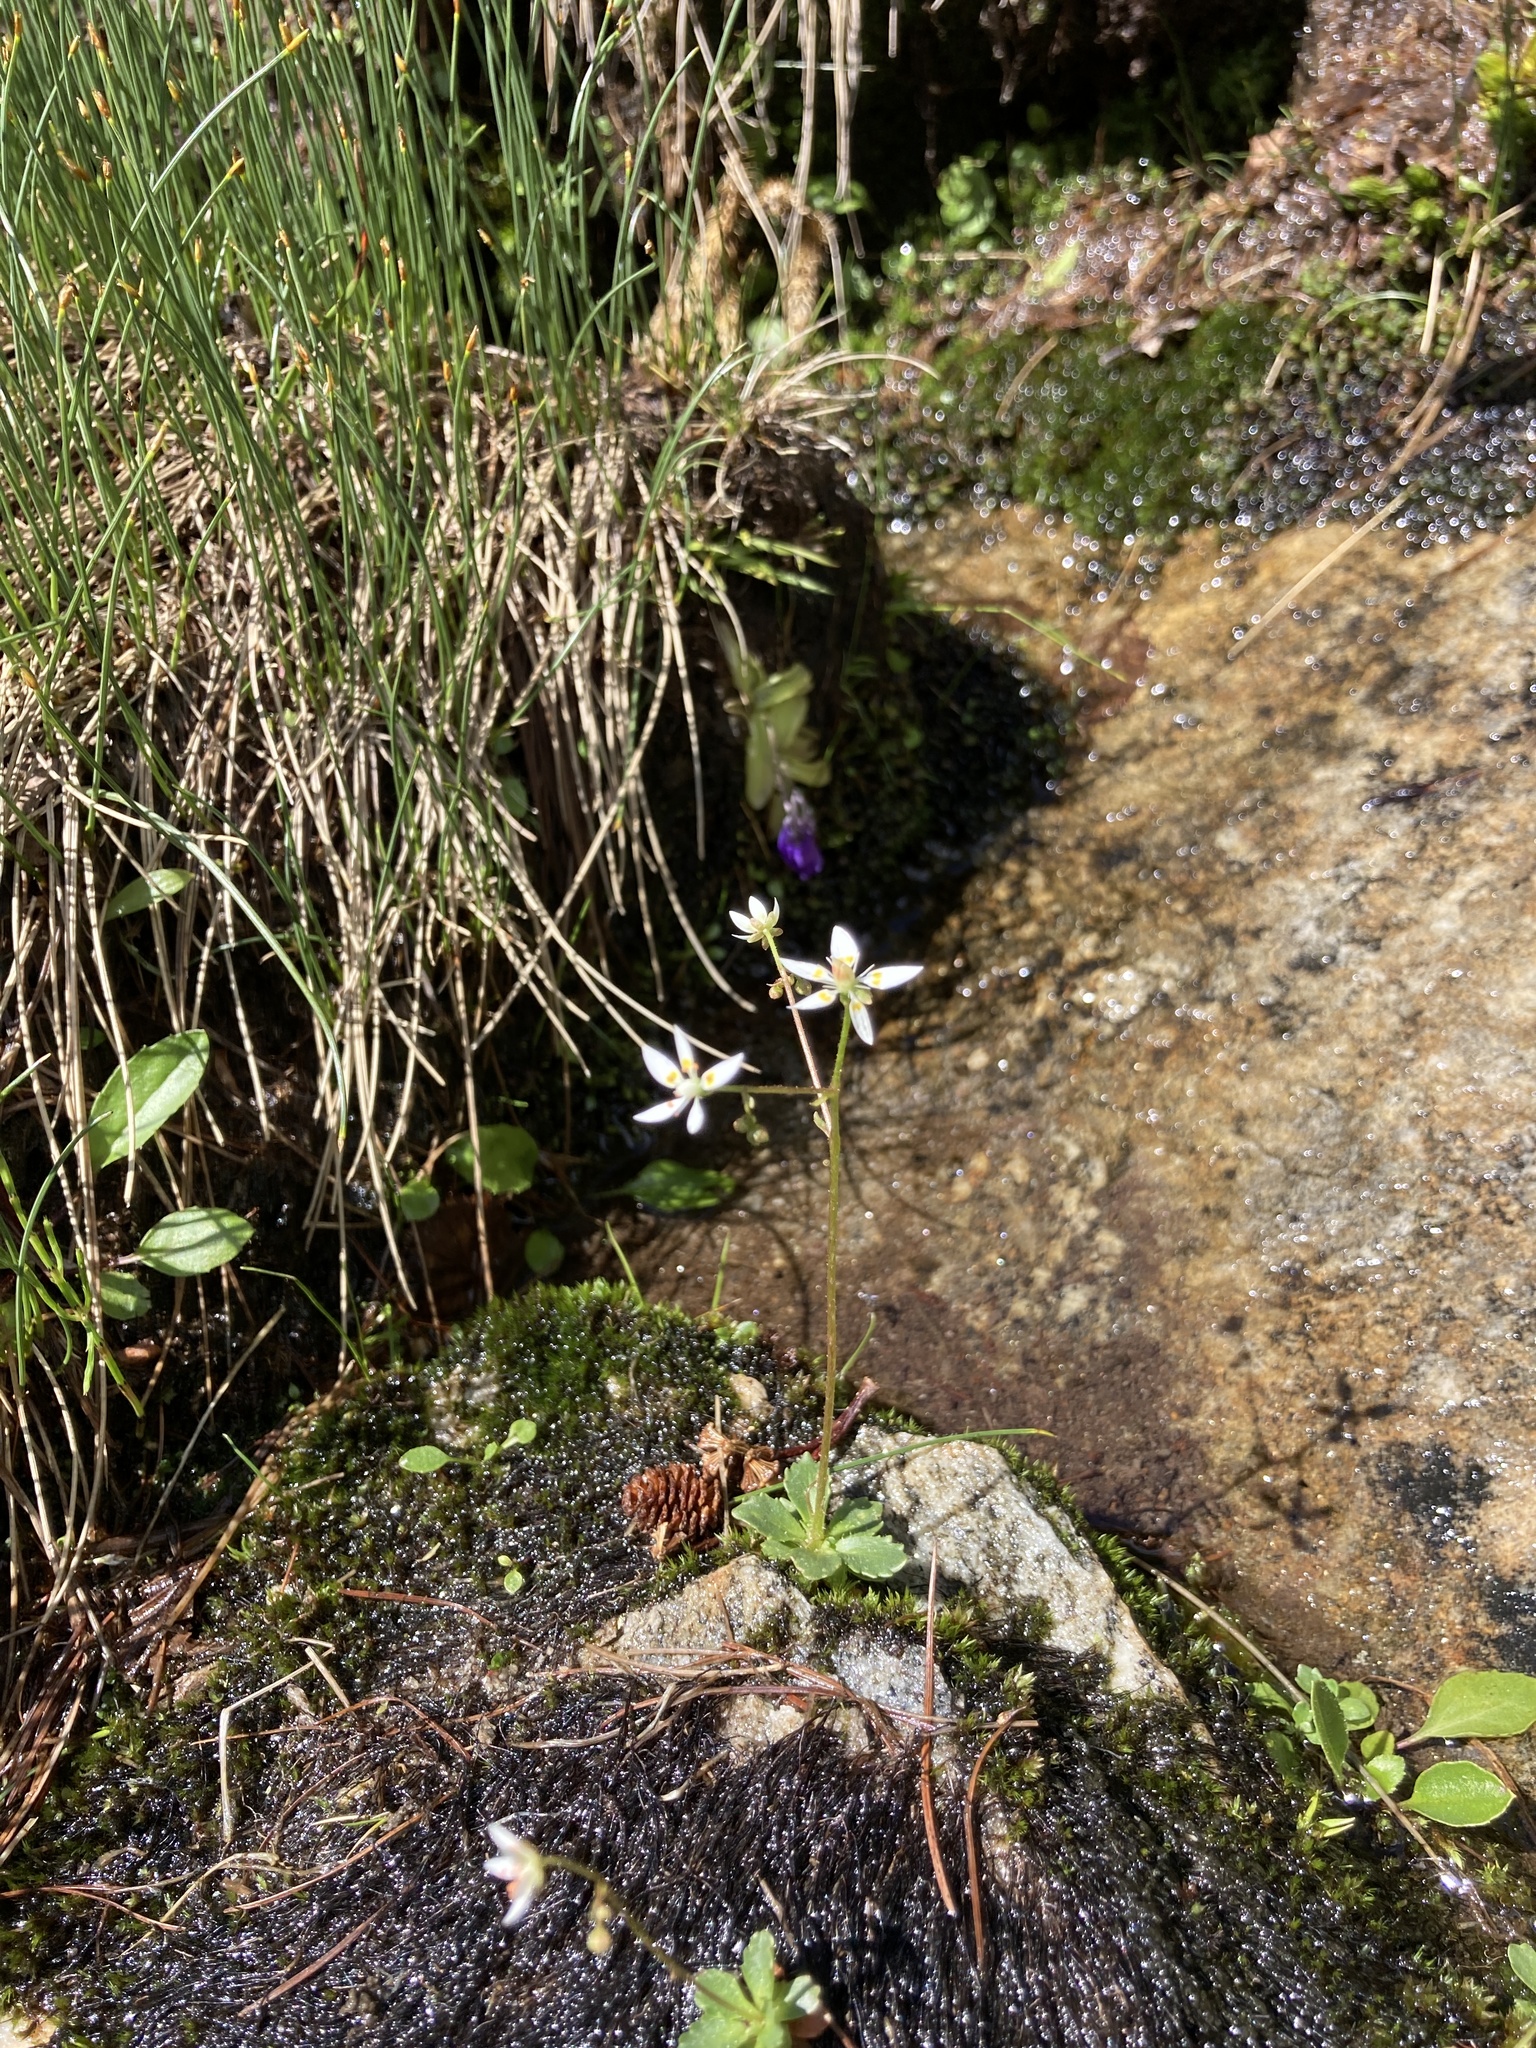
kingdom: Plantae
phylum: Tracheophyta
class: Magnoliopsida
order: Saxifragales
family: Saxifragaceae
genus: Micranthes
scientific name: Micranthes stellaris
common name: Starry saxifrage
